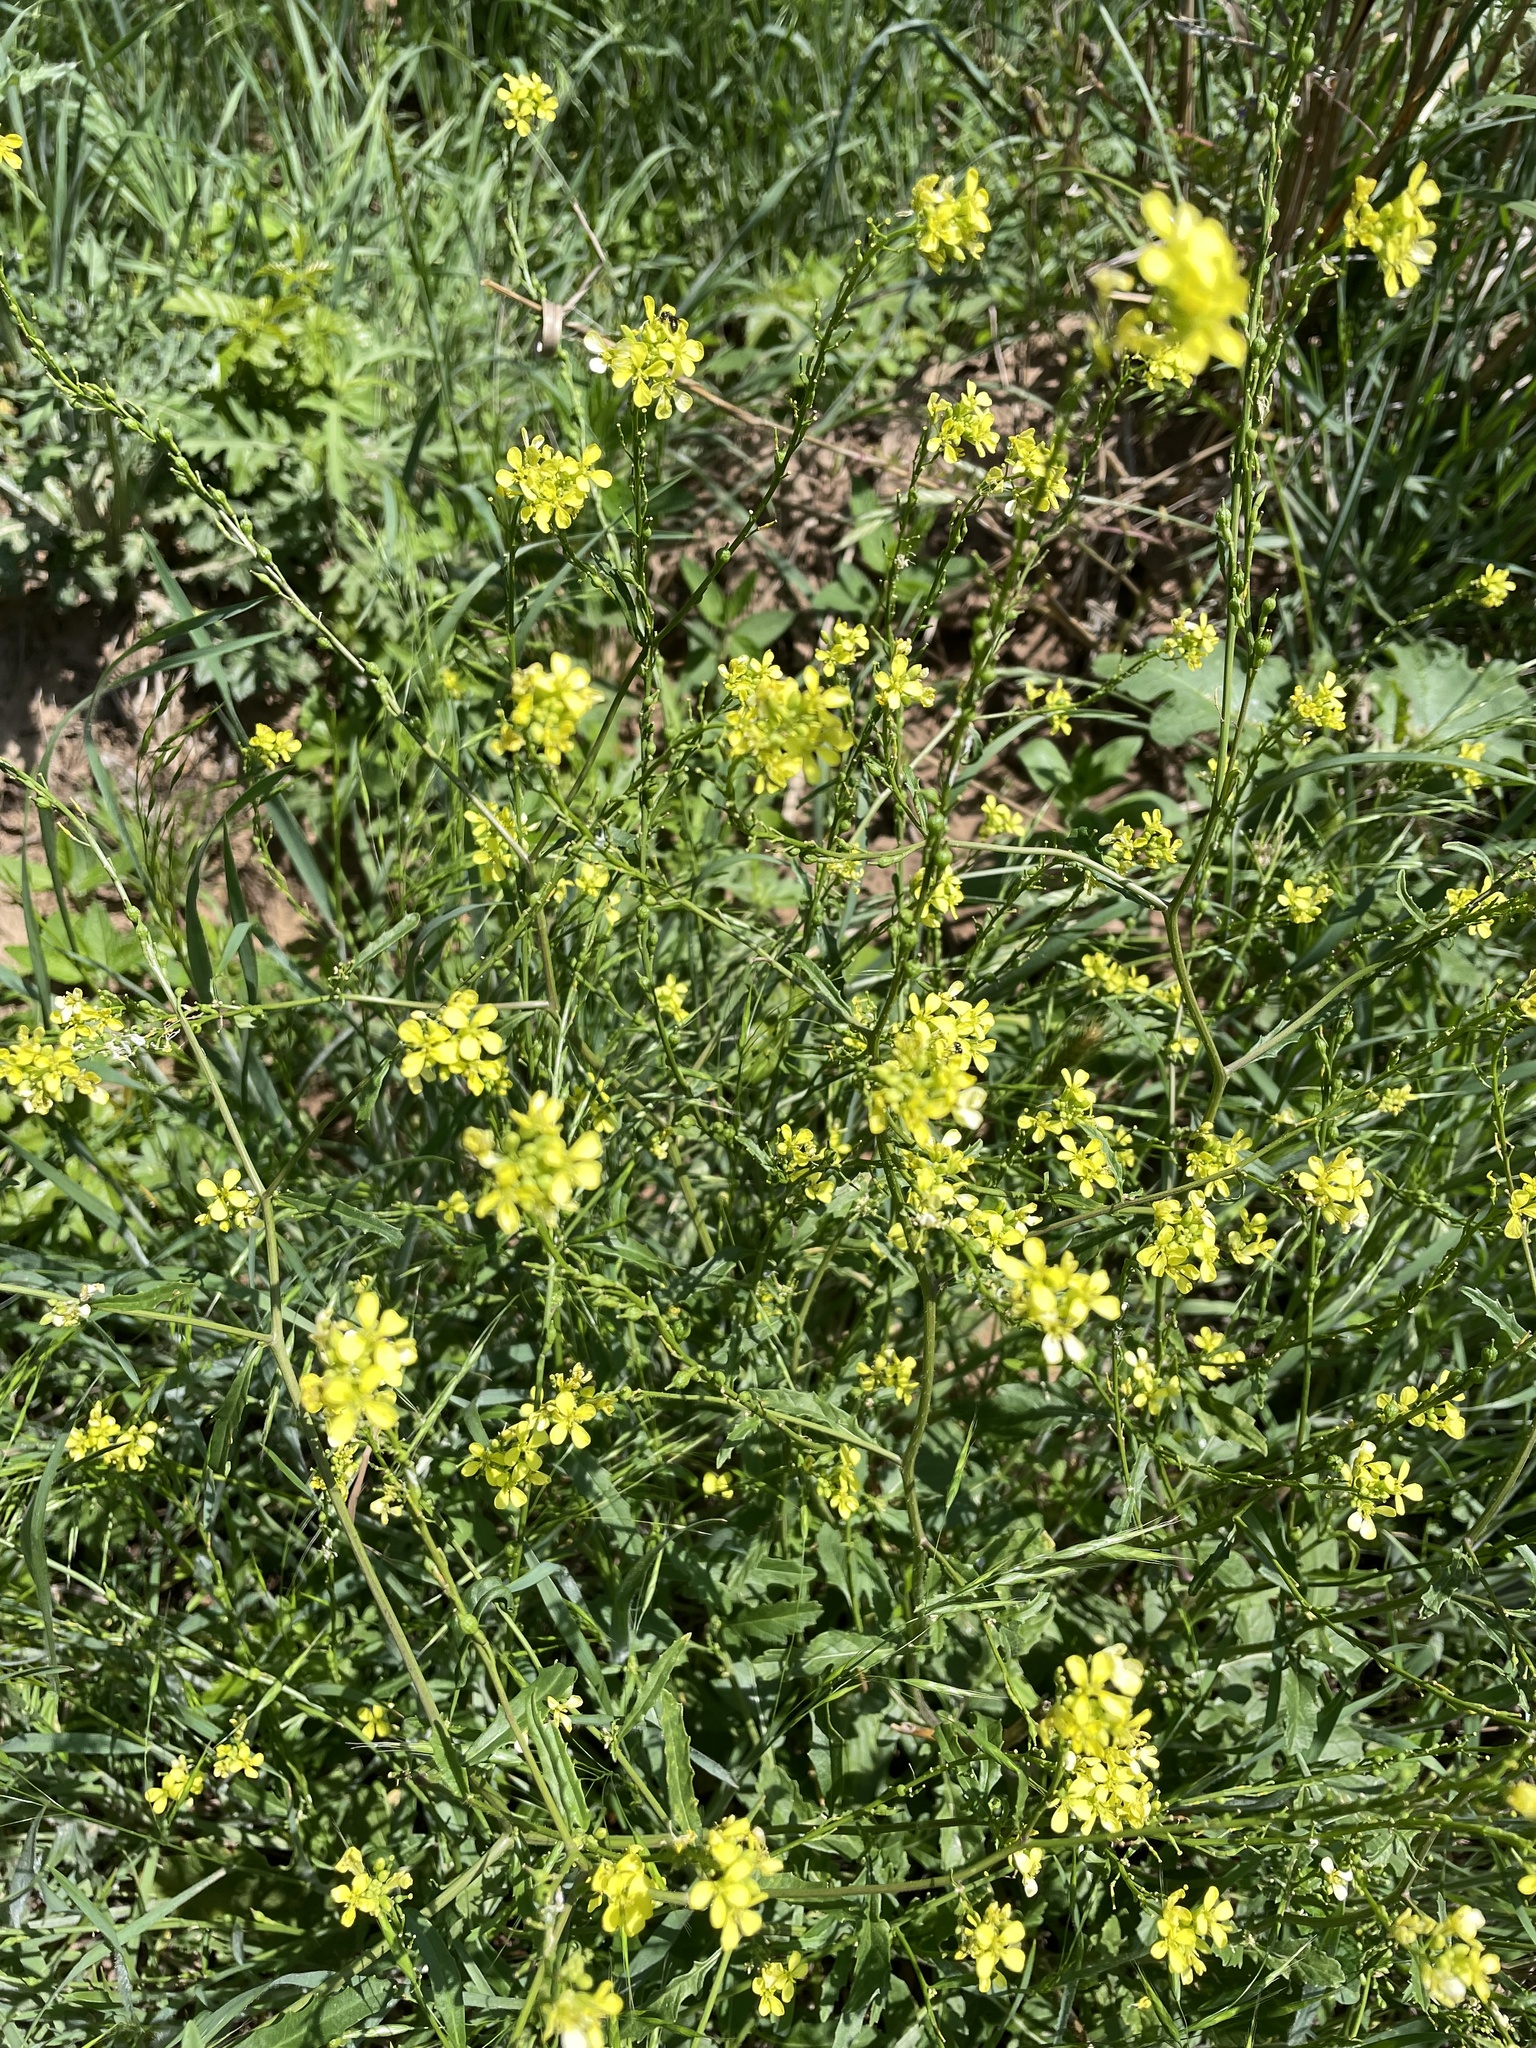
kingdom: Plantae
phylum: Tracheophyta
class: Magnoliopsida
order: Brassicales
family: Brassicaceae
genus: Rapistrum
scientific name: Rapistrum rugosum
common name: Annual bastardcabbage
